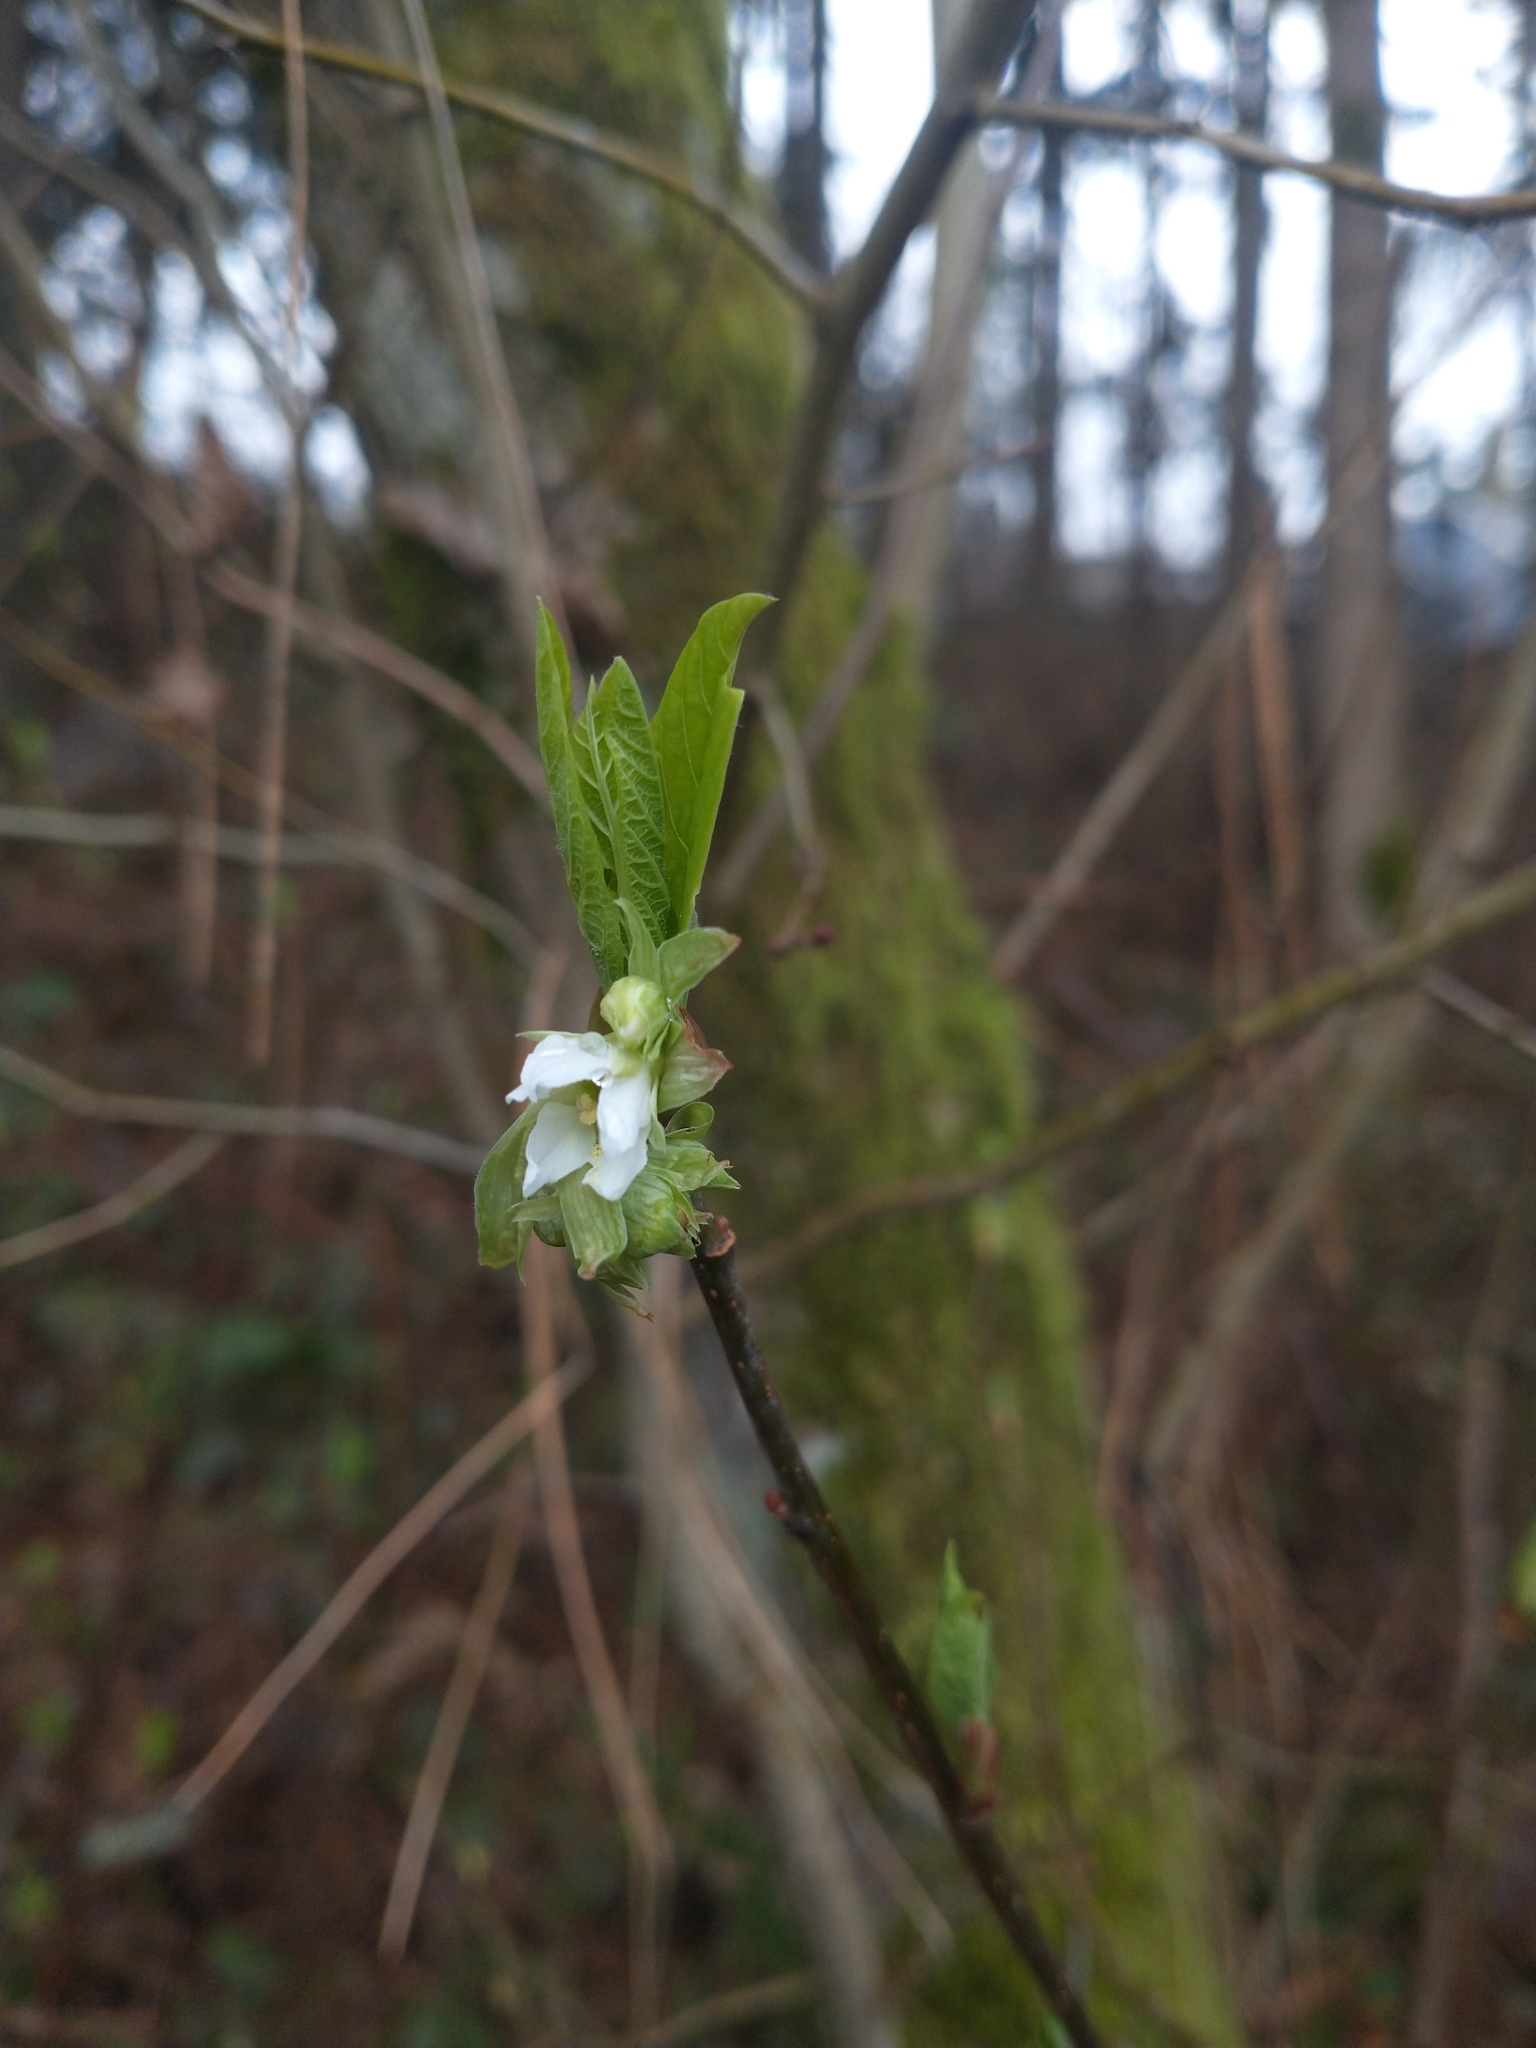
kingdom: Plantae
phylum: Tracheophyta
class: Magnoliopsida
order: Rosales
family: Rosaceae
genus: Oemleria
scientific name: Oemleria cerasiformis
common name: Osoberry
